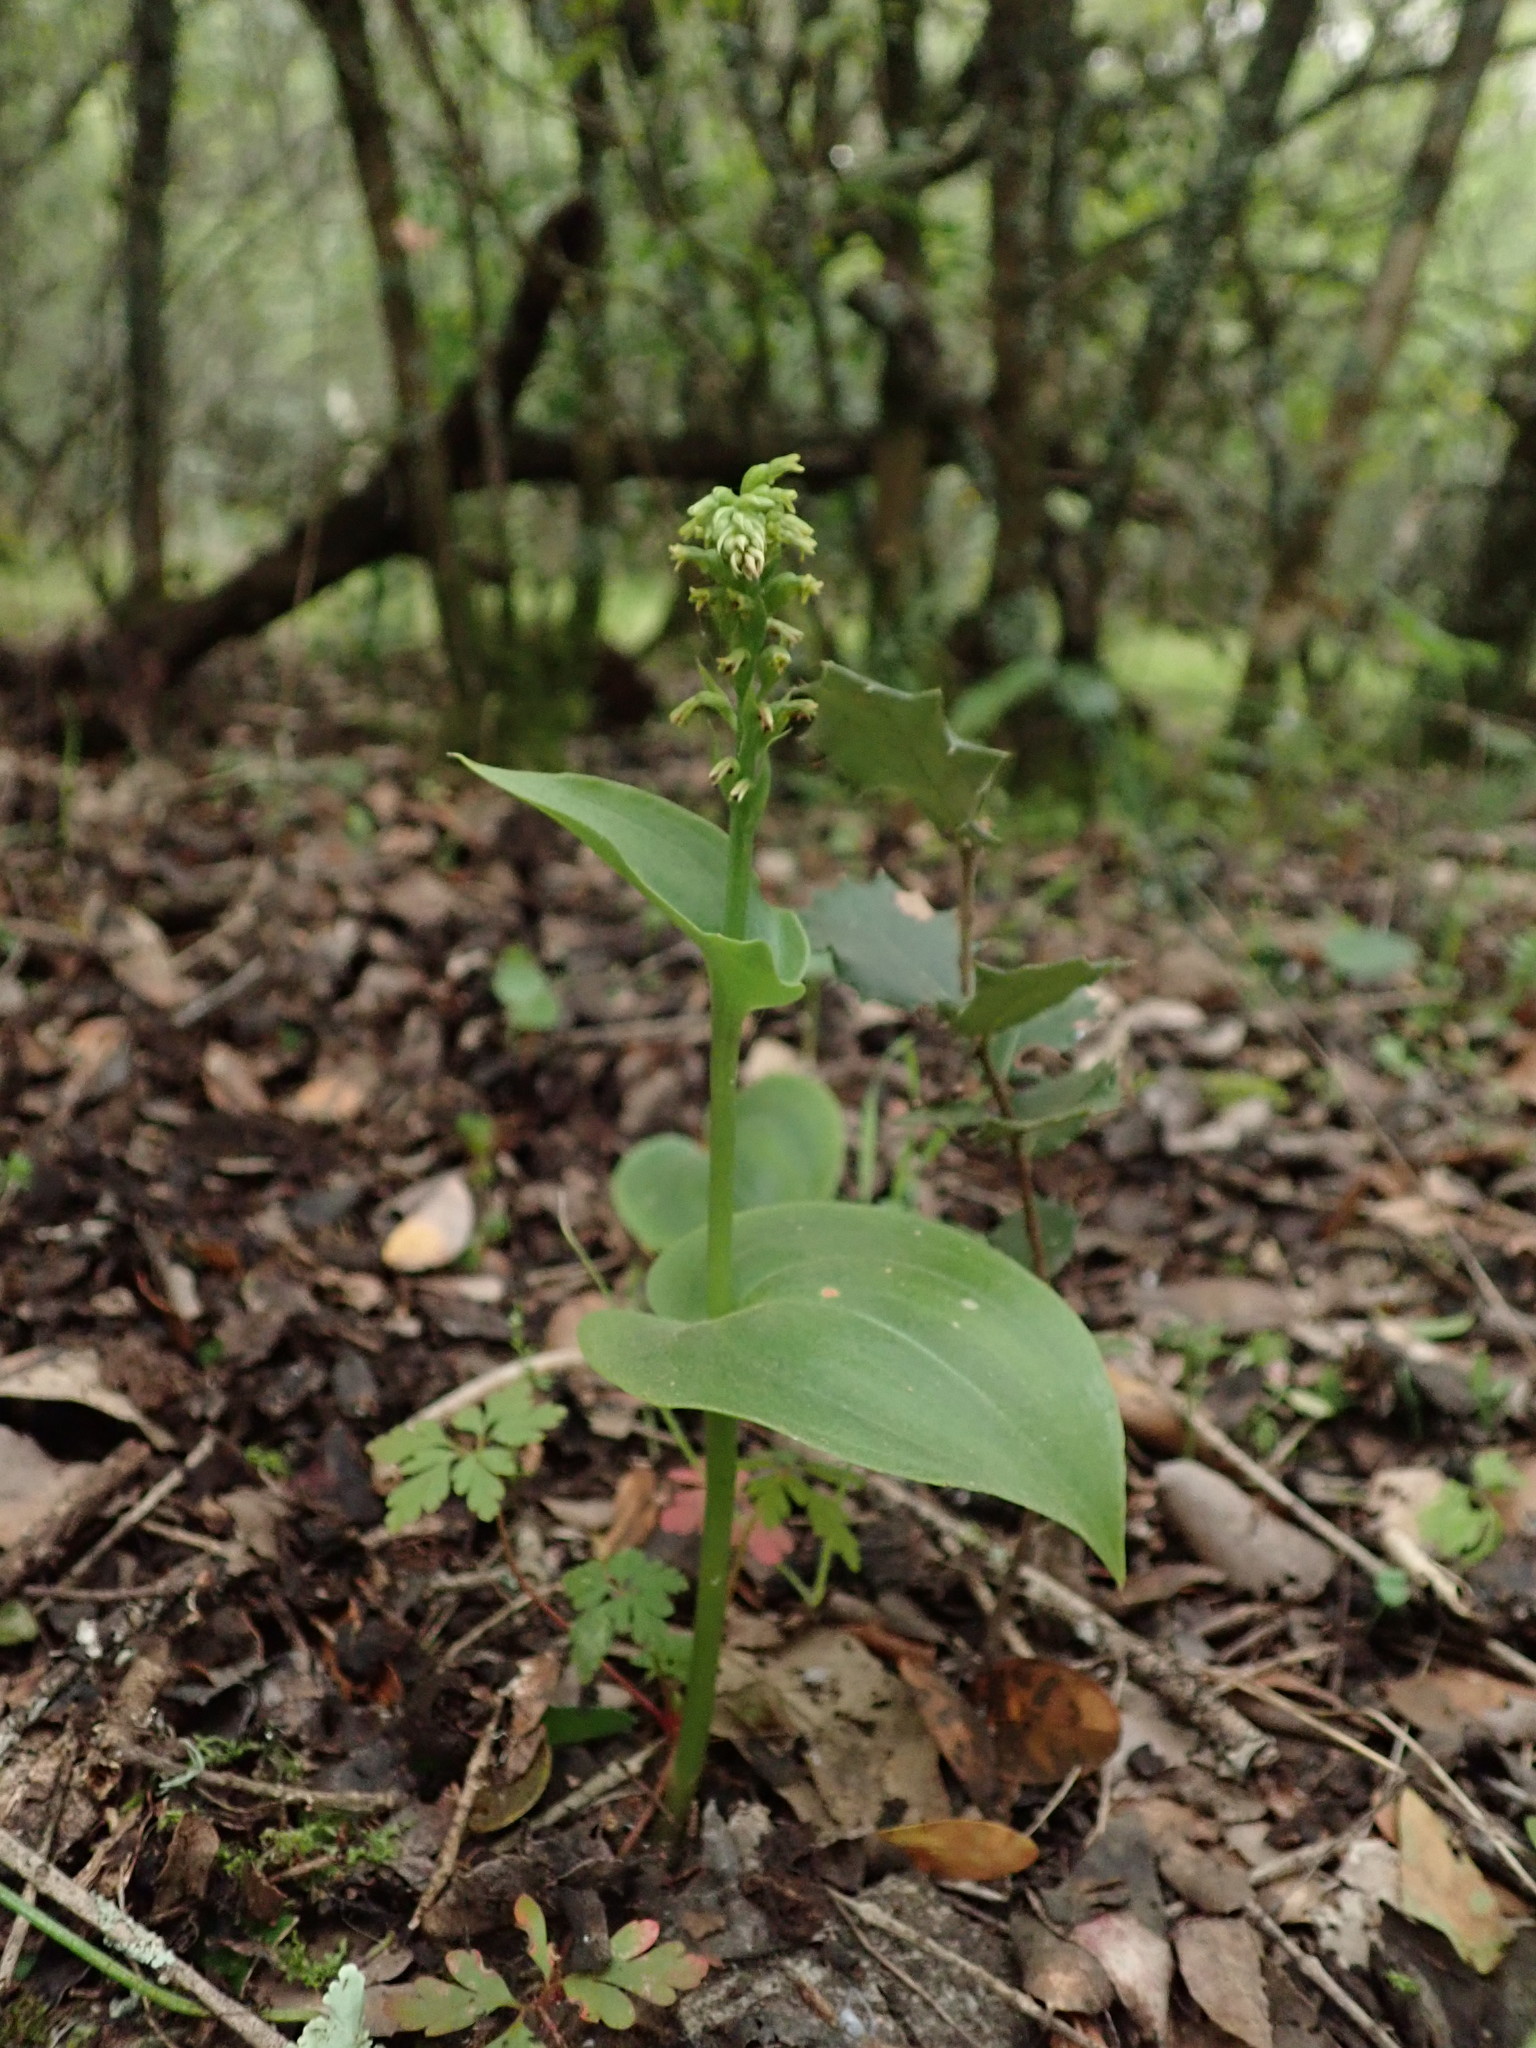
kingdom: Plantae
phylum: Tracheophyta
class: Liliopsida
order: Asparagales
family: Orchidaceae
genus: Gennaria
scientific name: Gennaria diphylla
